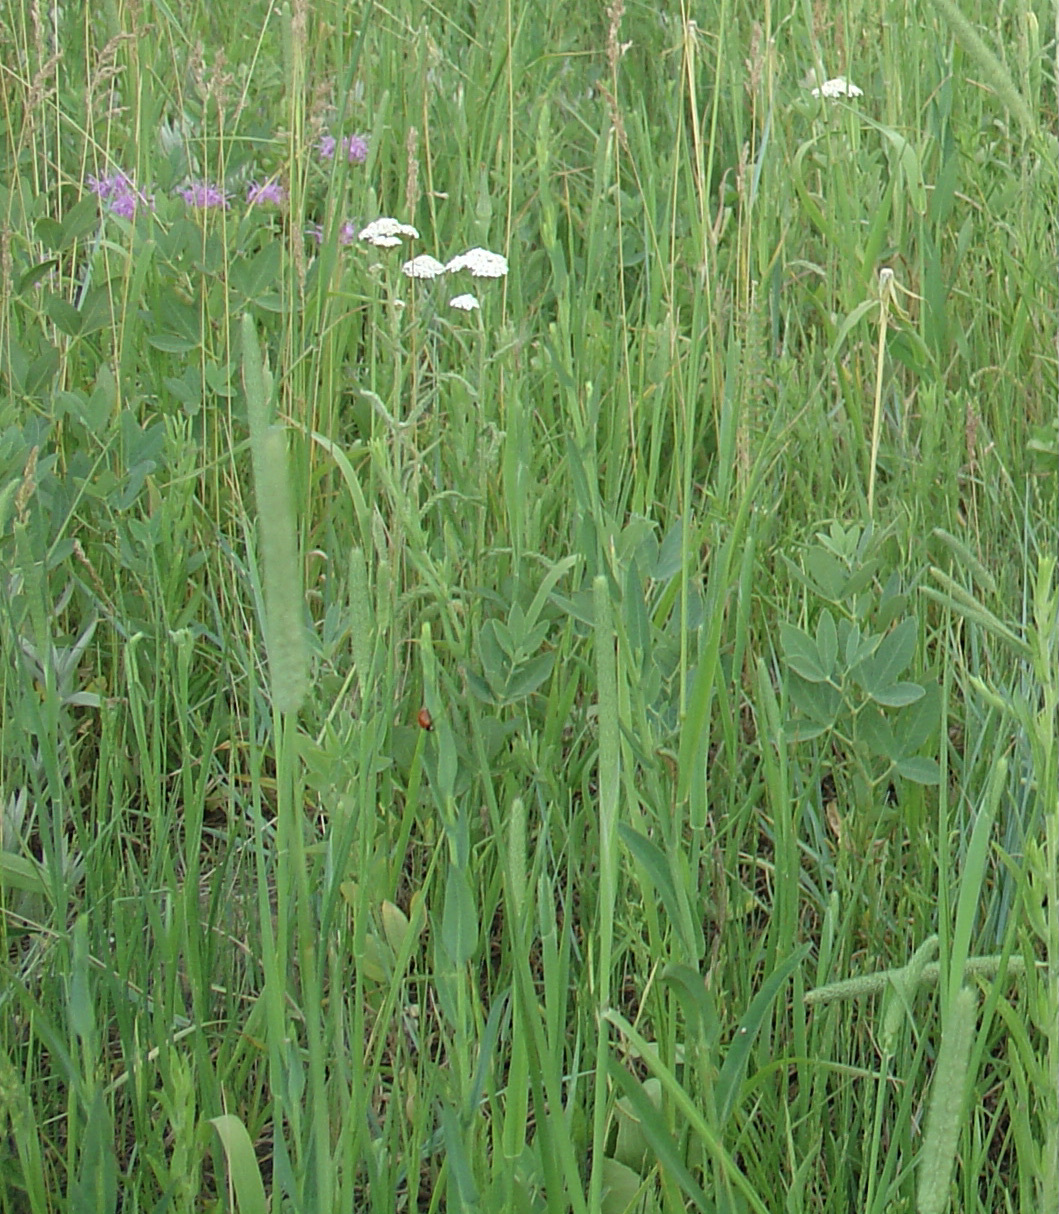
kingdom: Plantae
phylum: Tracheophyta
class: Magnoliopsida
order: Lamiales
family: Lamiaceae
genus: Monarda
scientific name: Monarda fistulosa
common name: Purple beebalm
